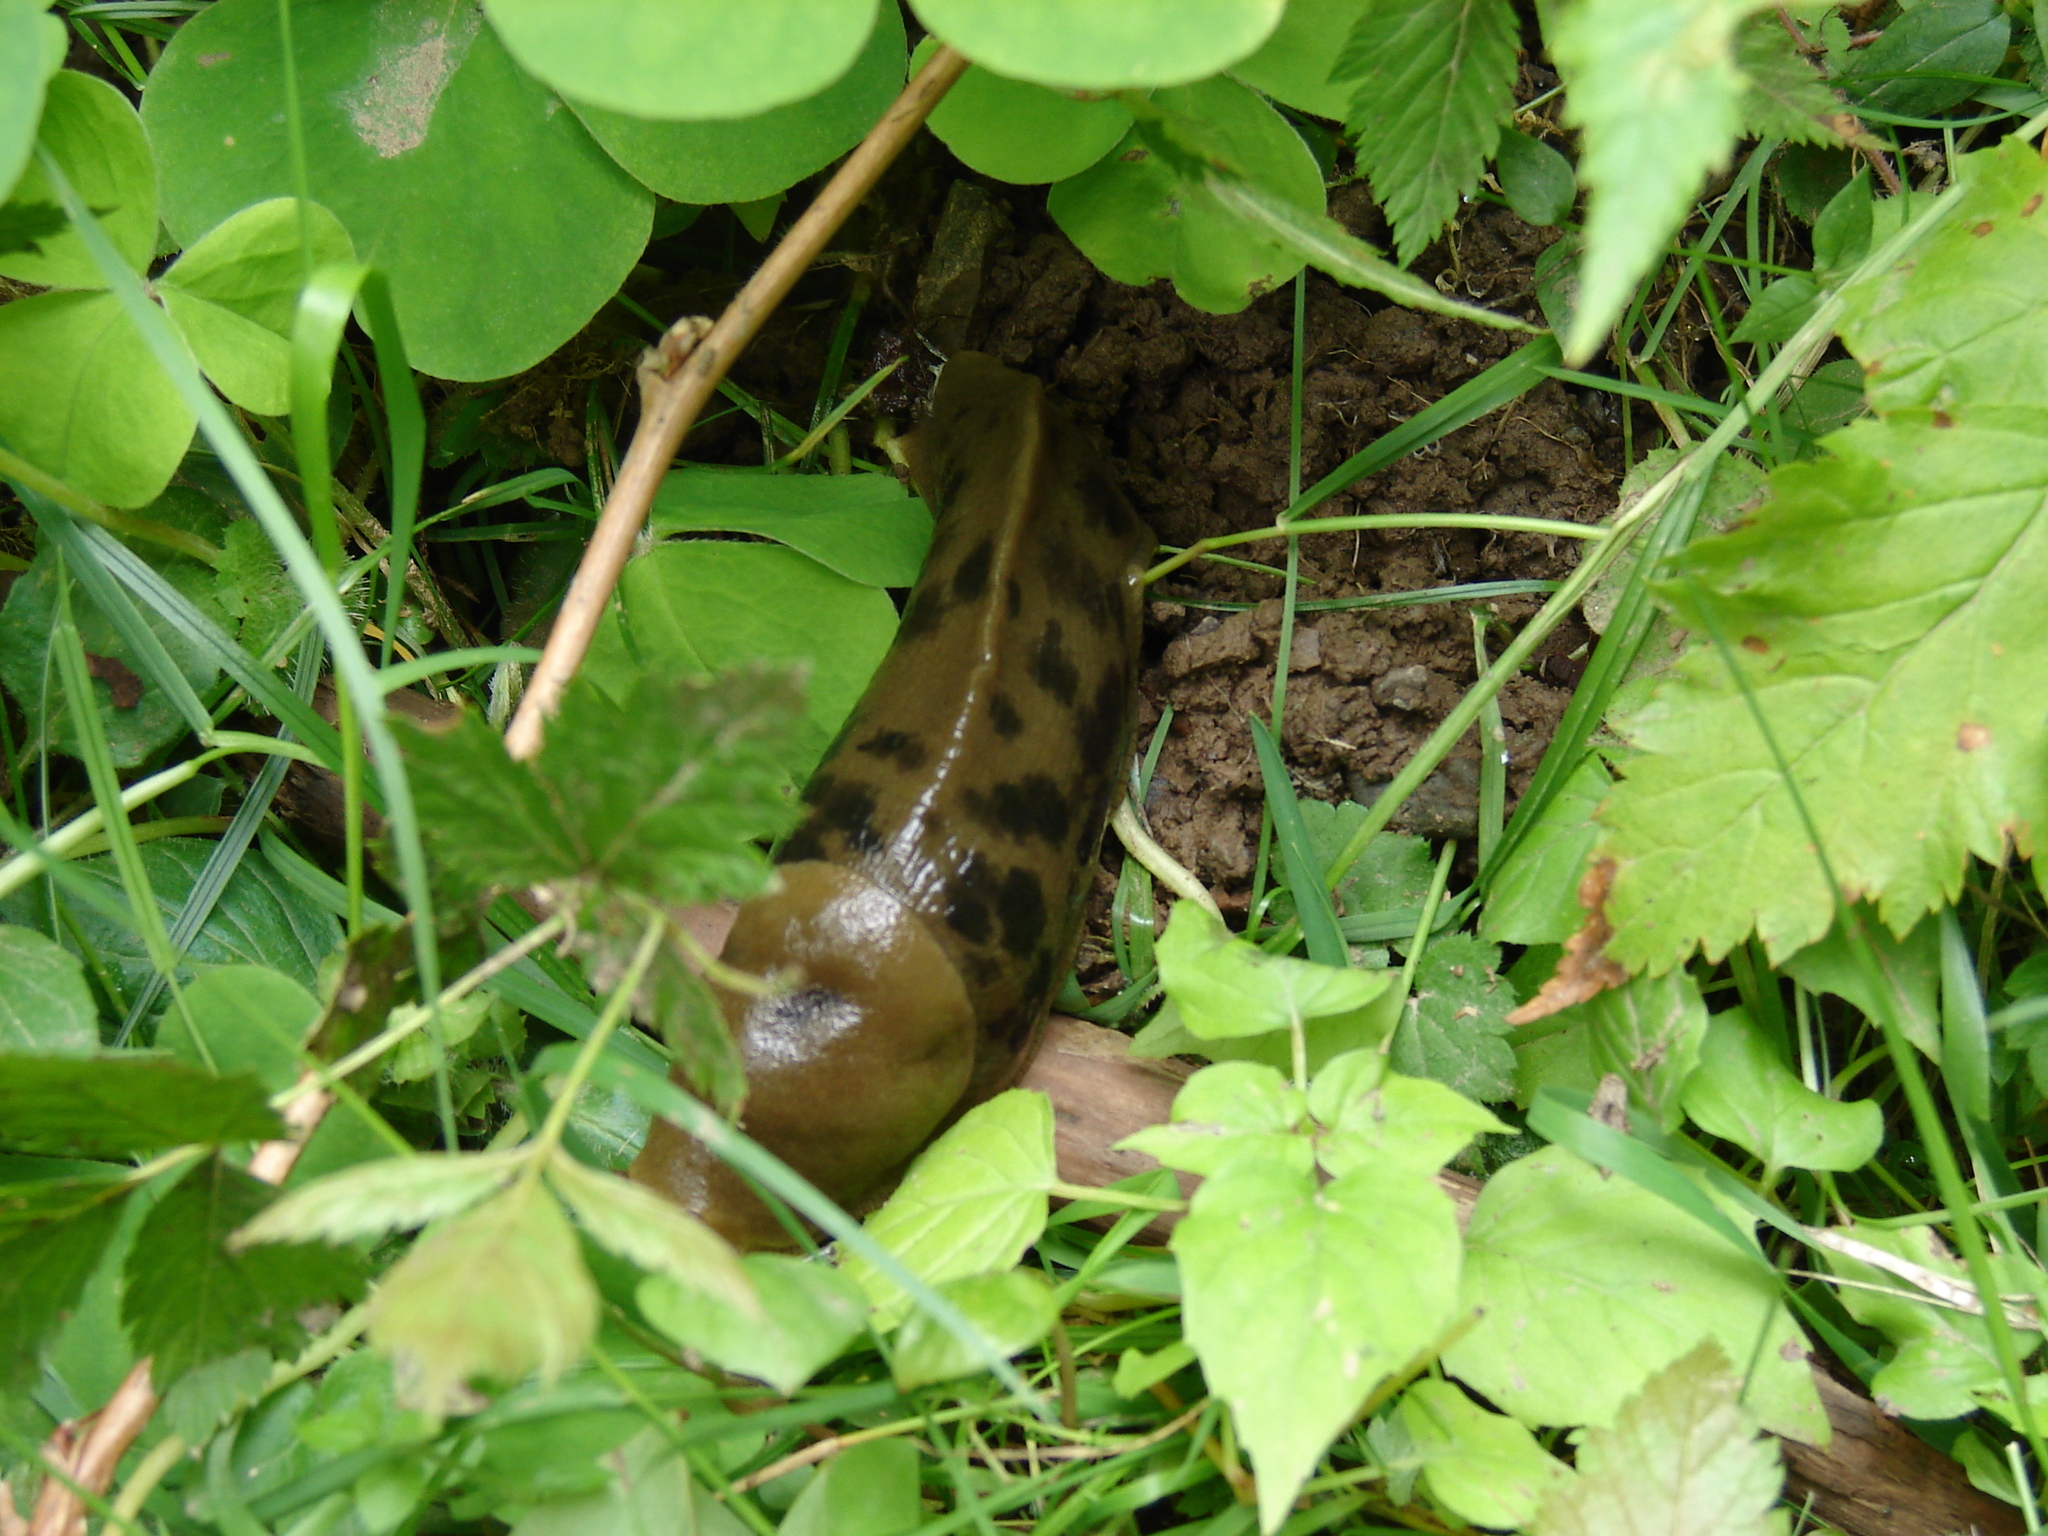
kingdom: Animalia
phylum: Mollusca
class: Gastropoda
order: Stylommatophora
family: Ariolimacidae
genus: Ariolimax
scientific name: Ariolimax columbianus
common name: Pacific banana slug
